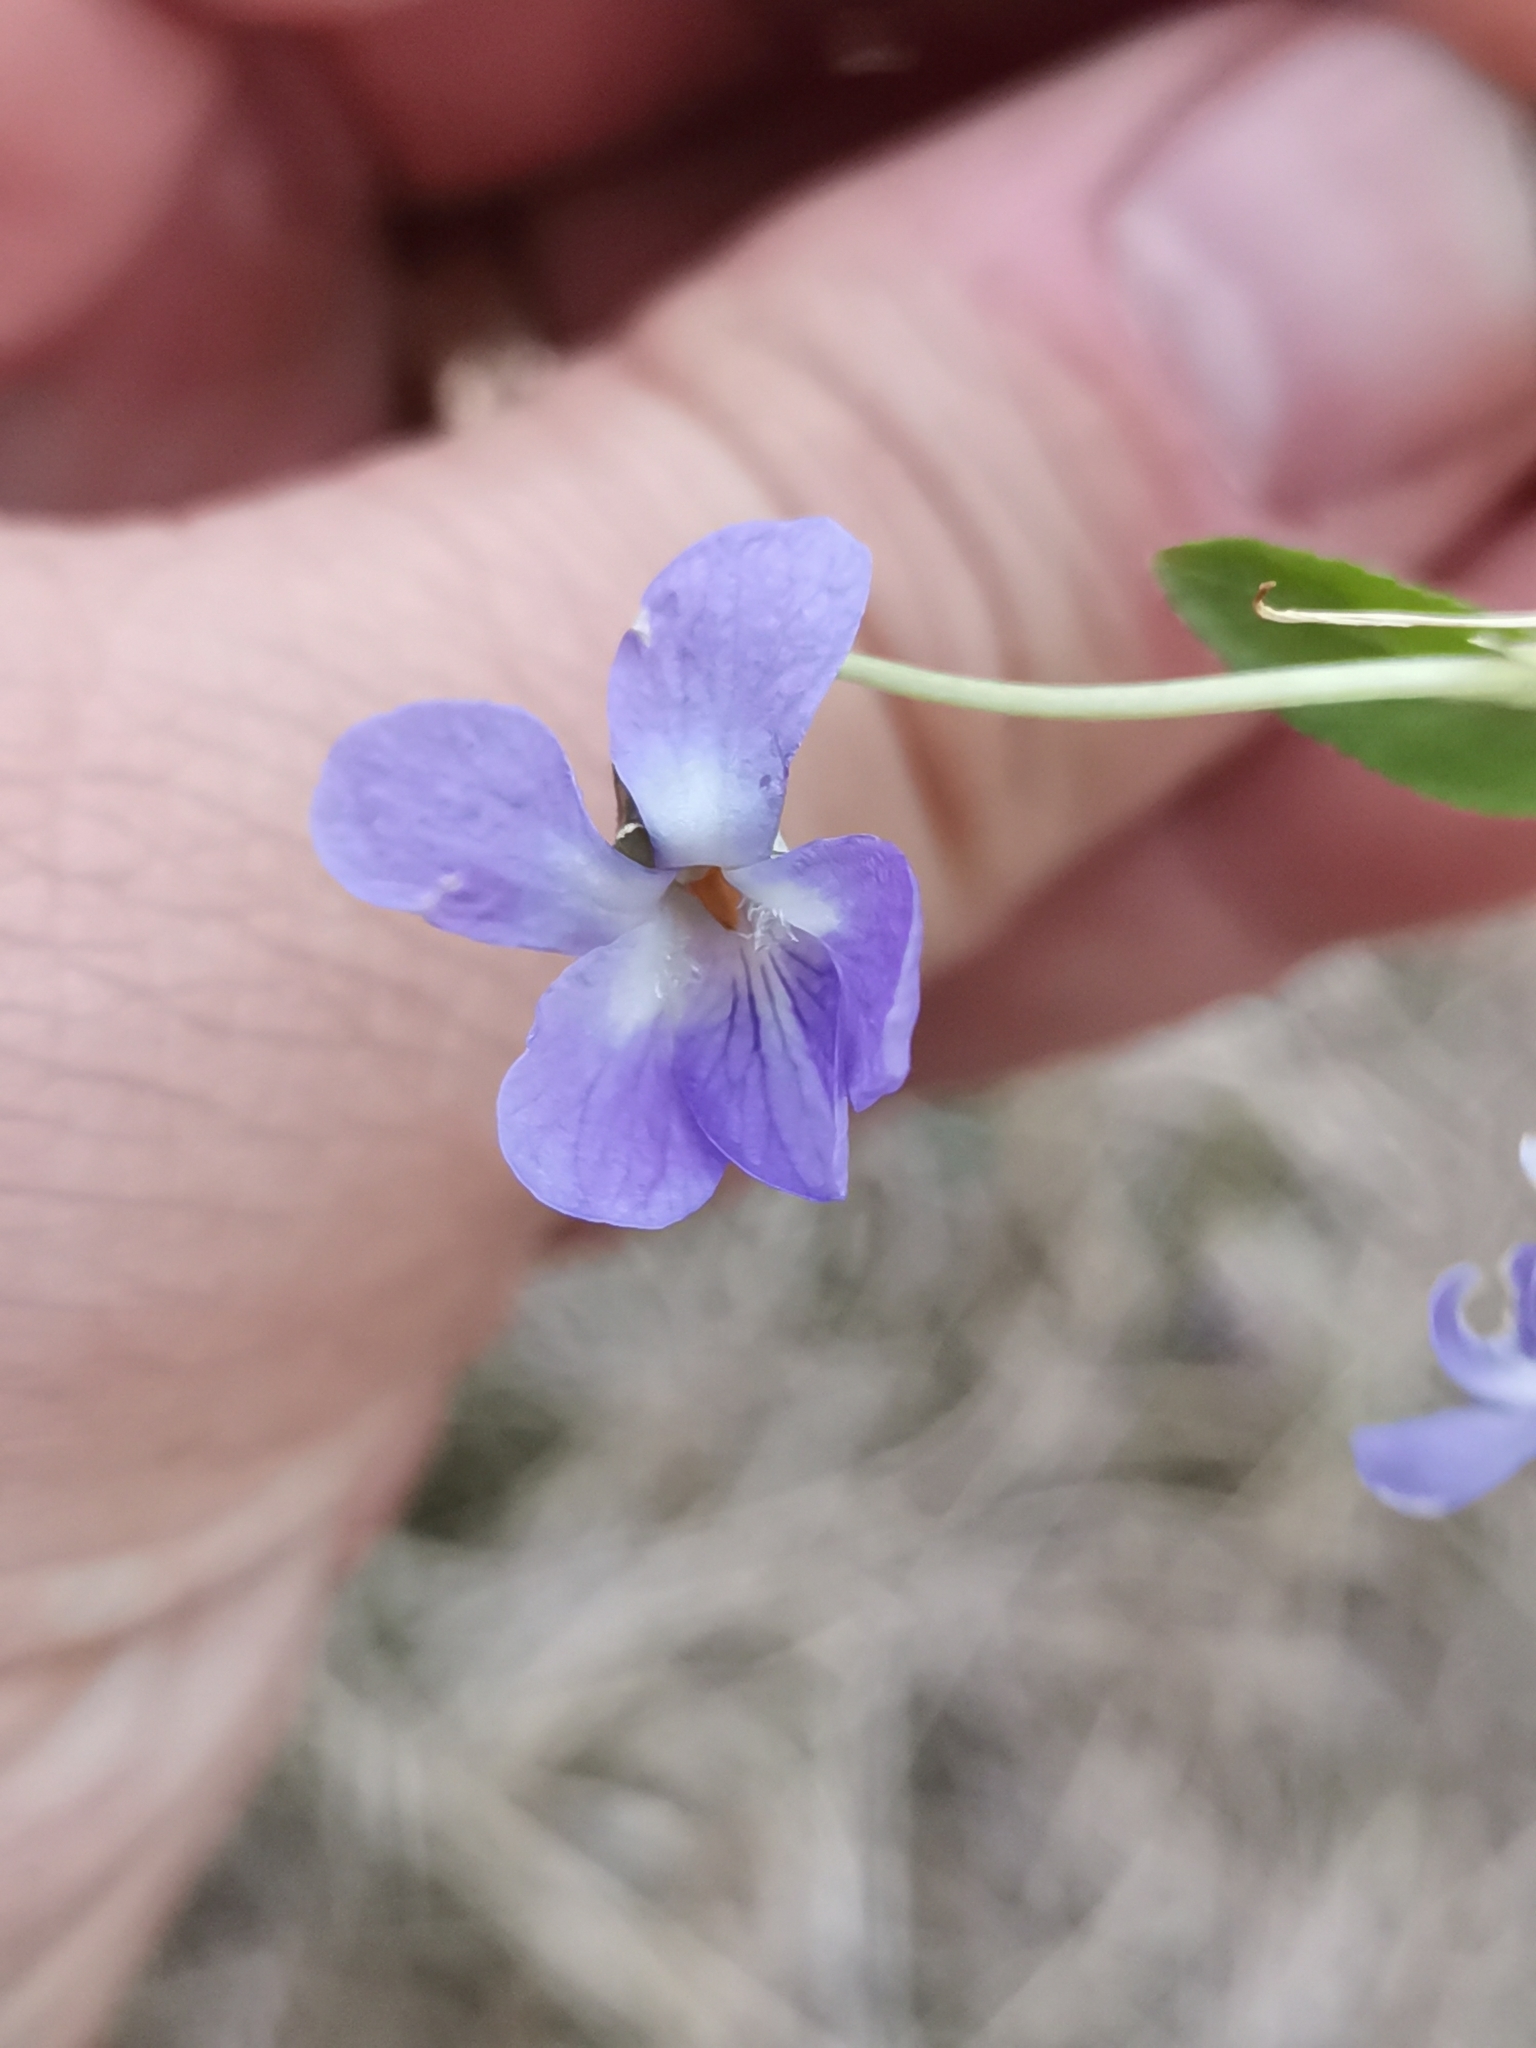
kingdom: Plantae
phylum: Tracheophyta
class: Magnoliopsida
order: Malpighiales
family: Violaceae
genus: Viola
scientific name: Viola hirta
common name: Hairy violet
